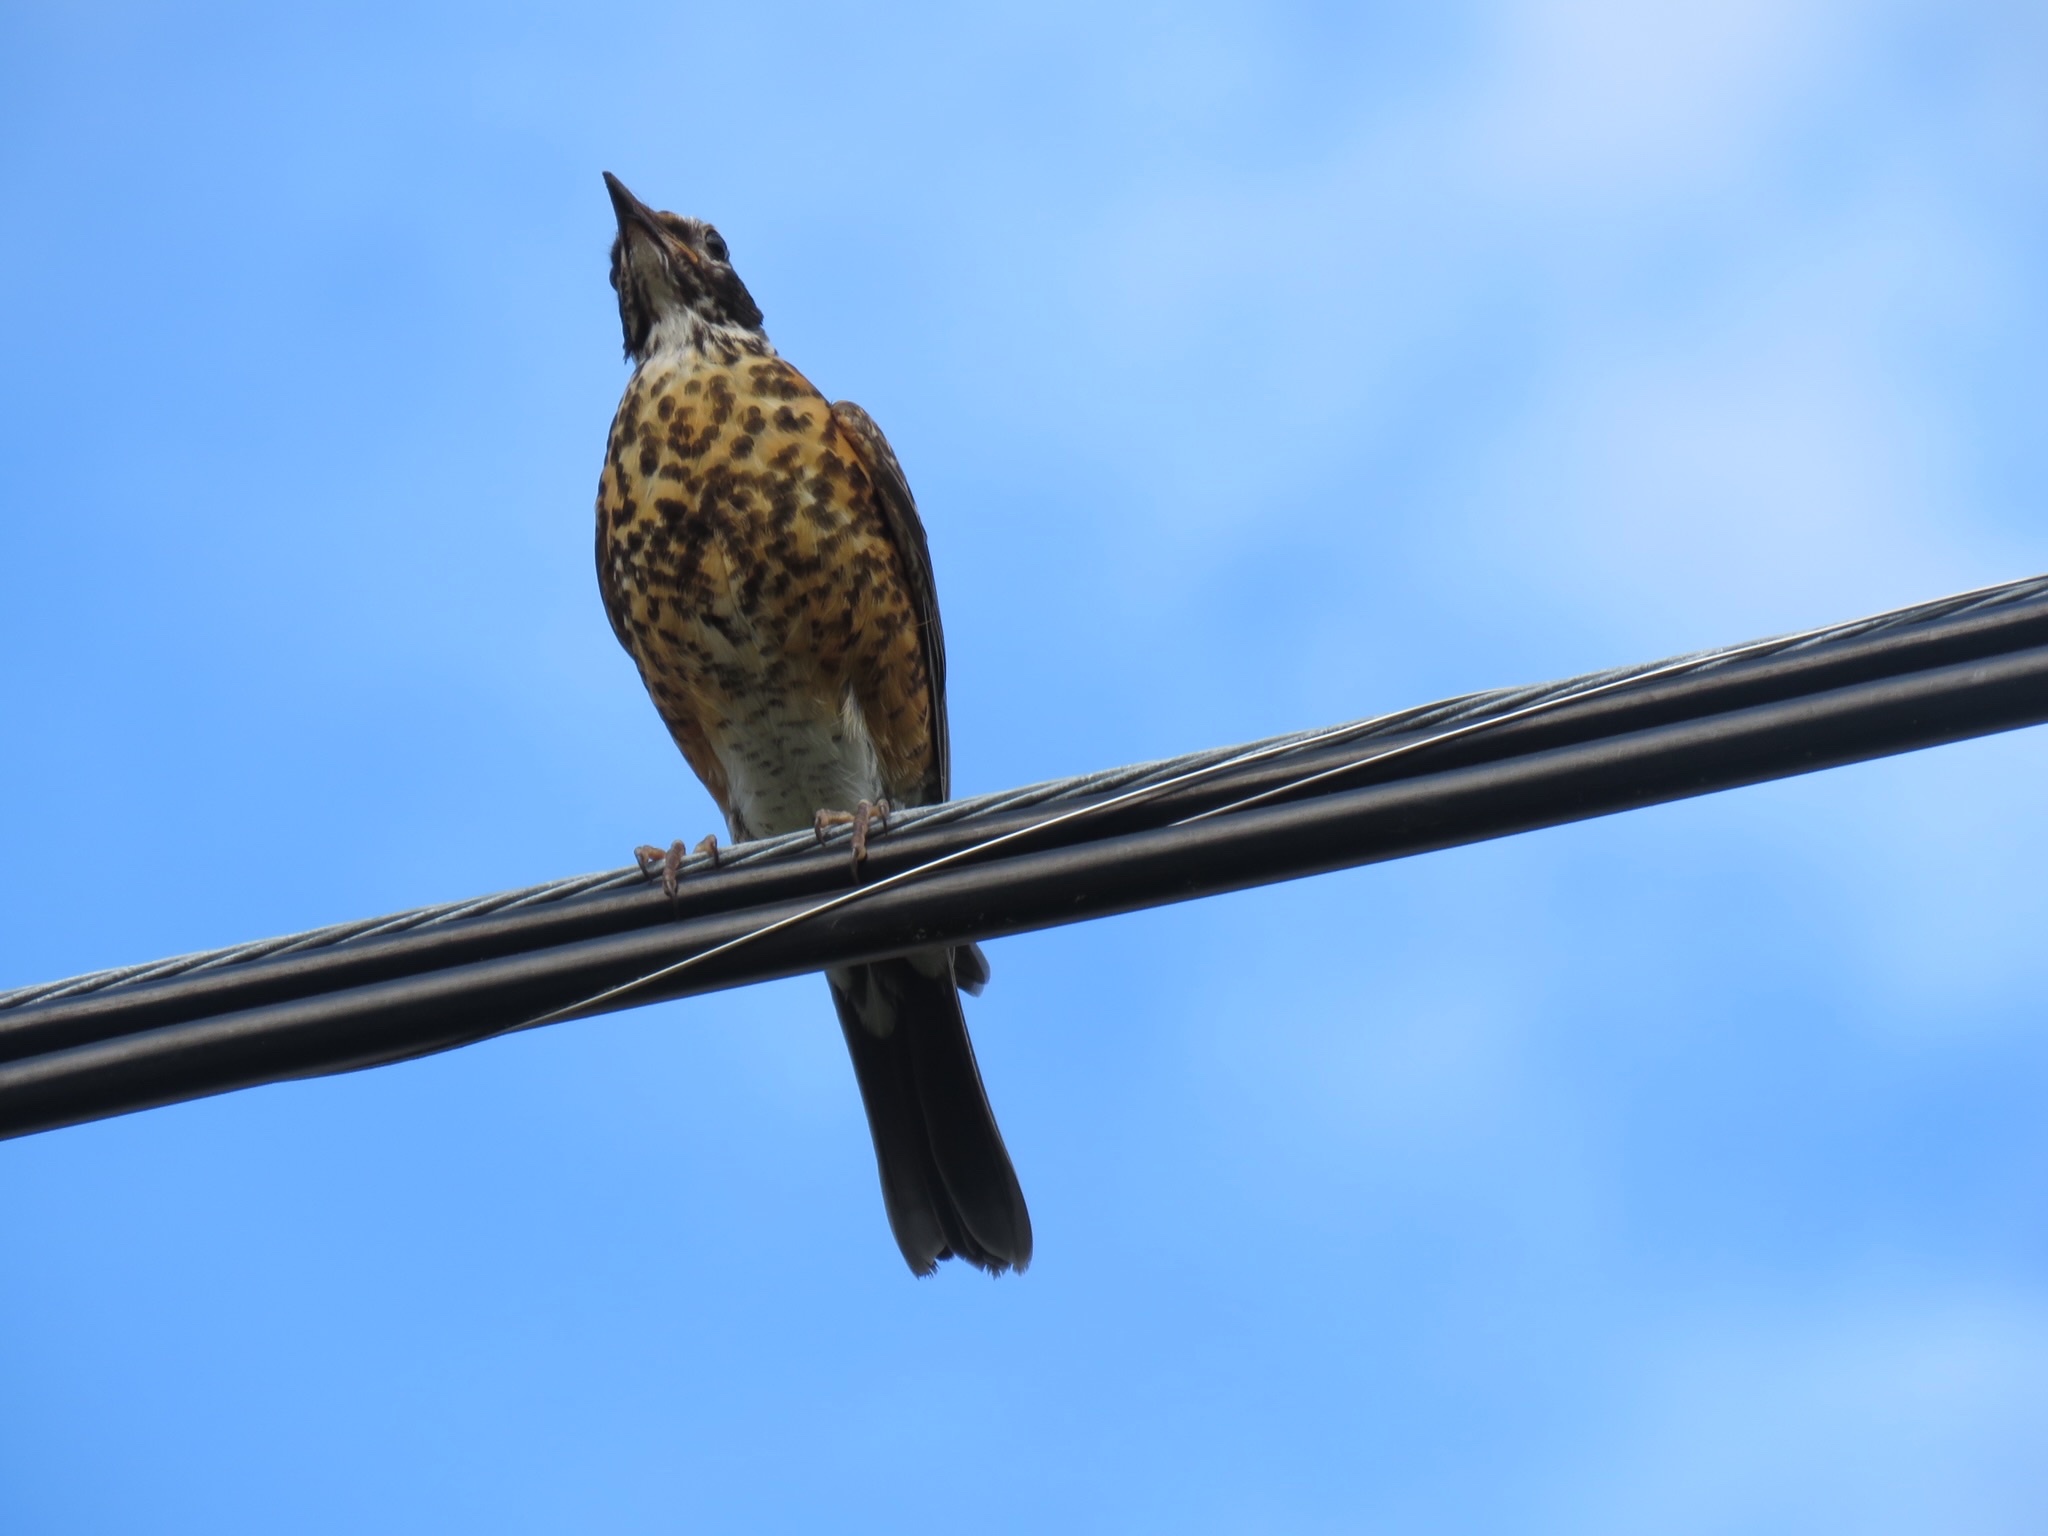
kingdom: Animalia
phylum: Chordata
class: Aves
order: Passeriformes
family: Turdidae
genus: Turdus
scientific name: Turdus migratorius
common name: American robin
